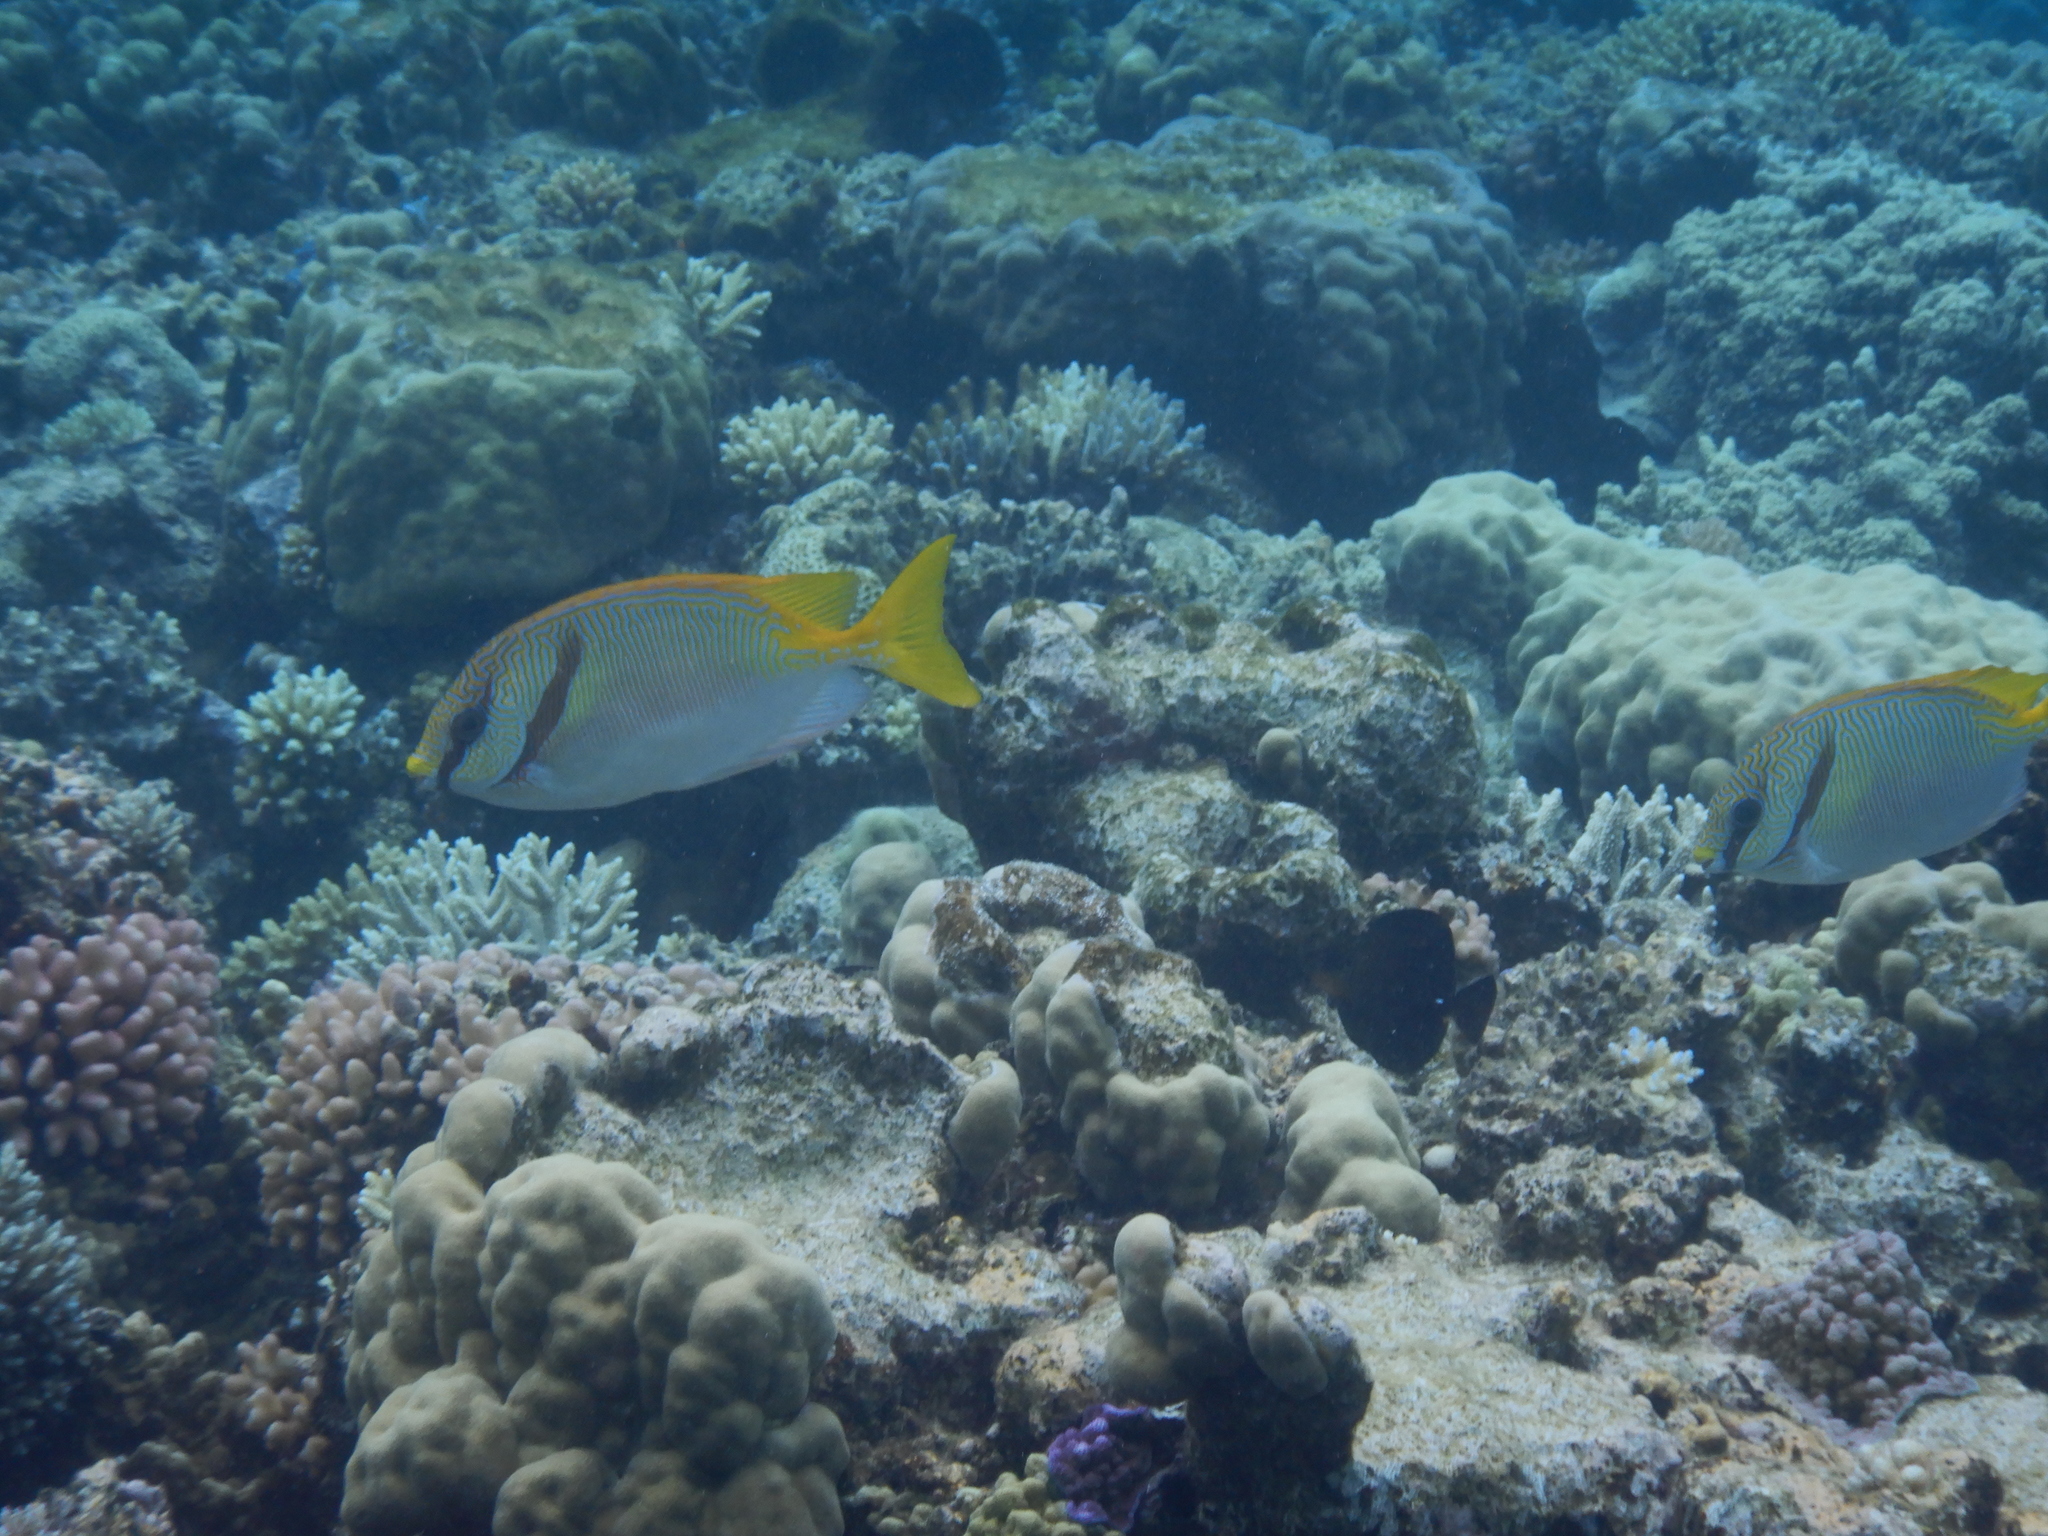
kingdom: Animalia
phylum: Chordata
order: Perciformes
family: Siganidae
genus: Siganus
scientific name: Siganus doliatus
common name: Barred spinefoot
